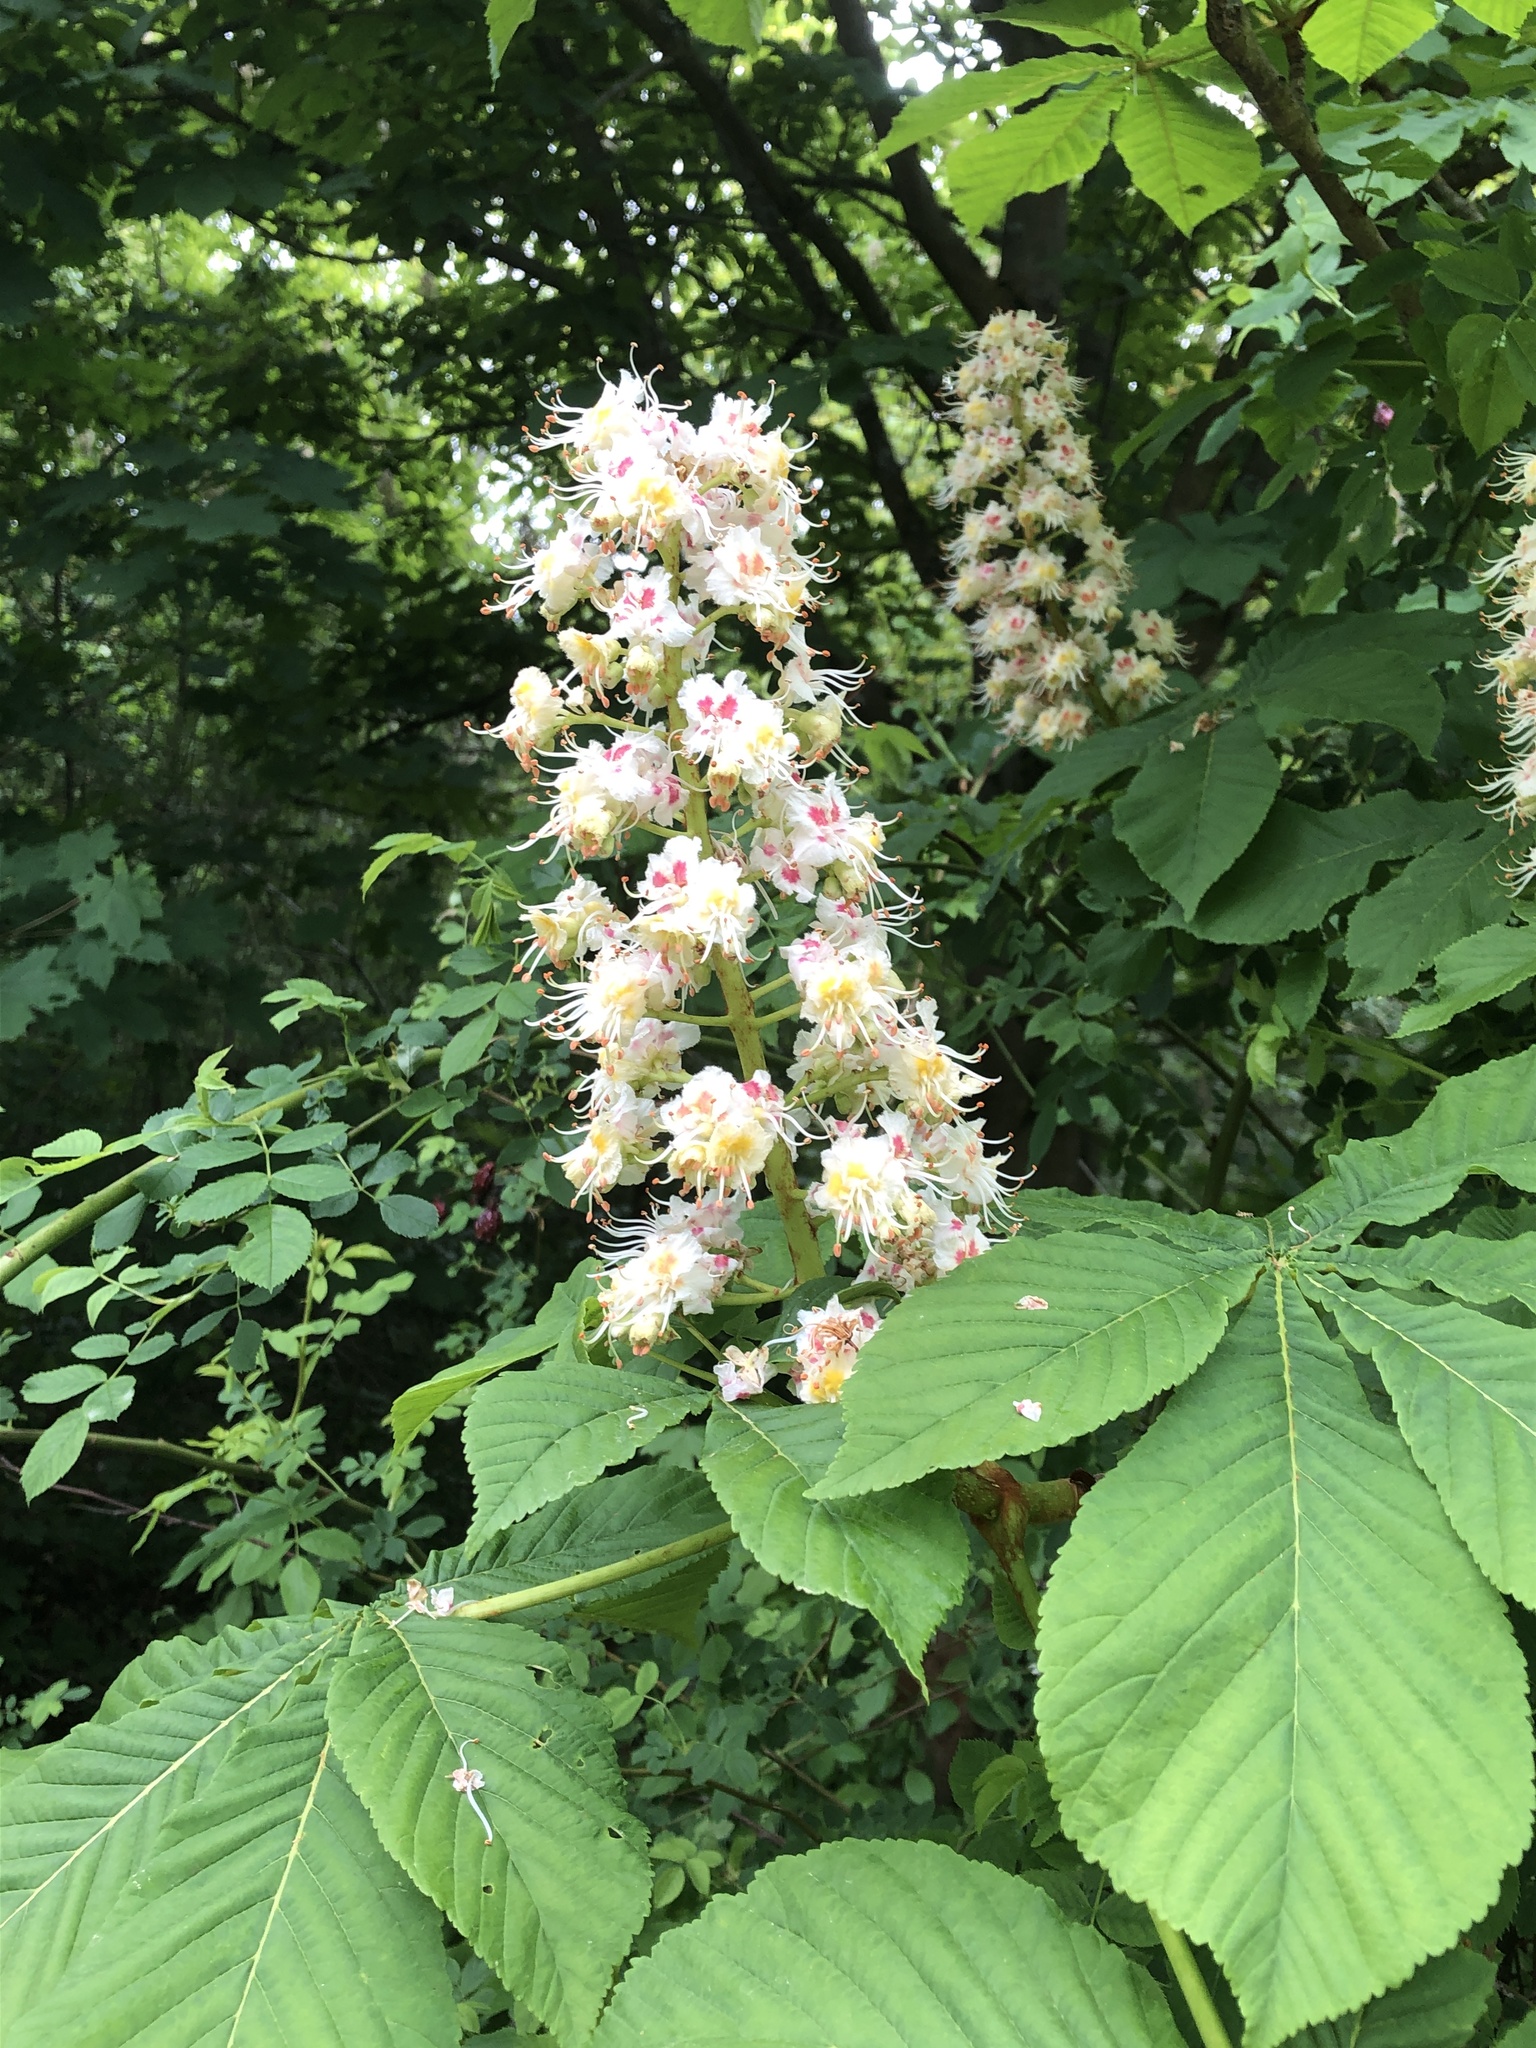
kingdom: Plantae
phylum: Tracheophyta
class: Magnoliopsida
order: Sapindales
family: Sapindaceae
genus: Aesculus
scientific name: Aesculus hippocastanum
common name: Horse-chestnut
